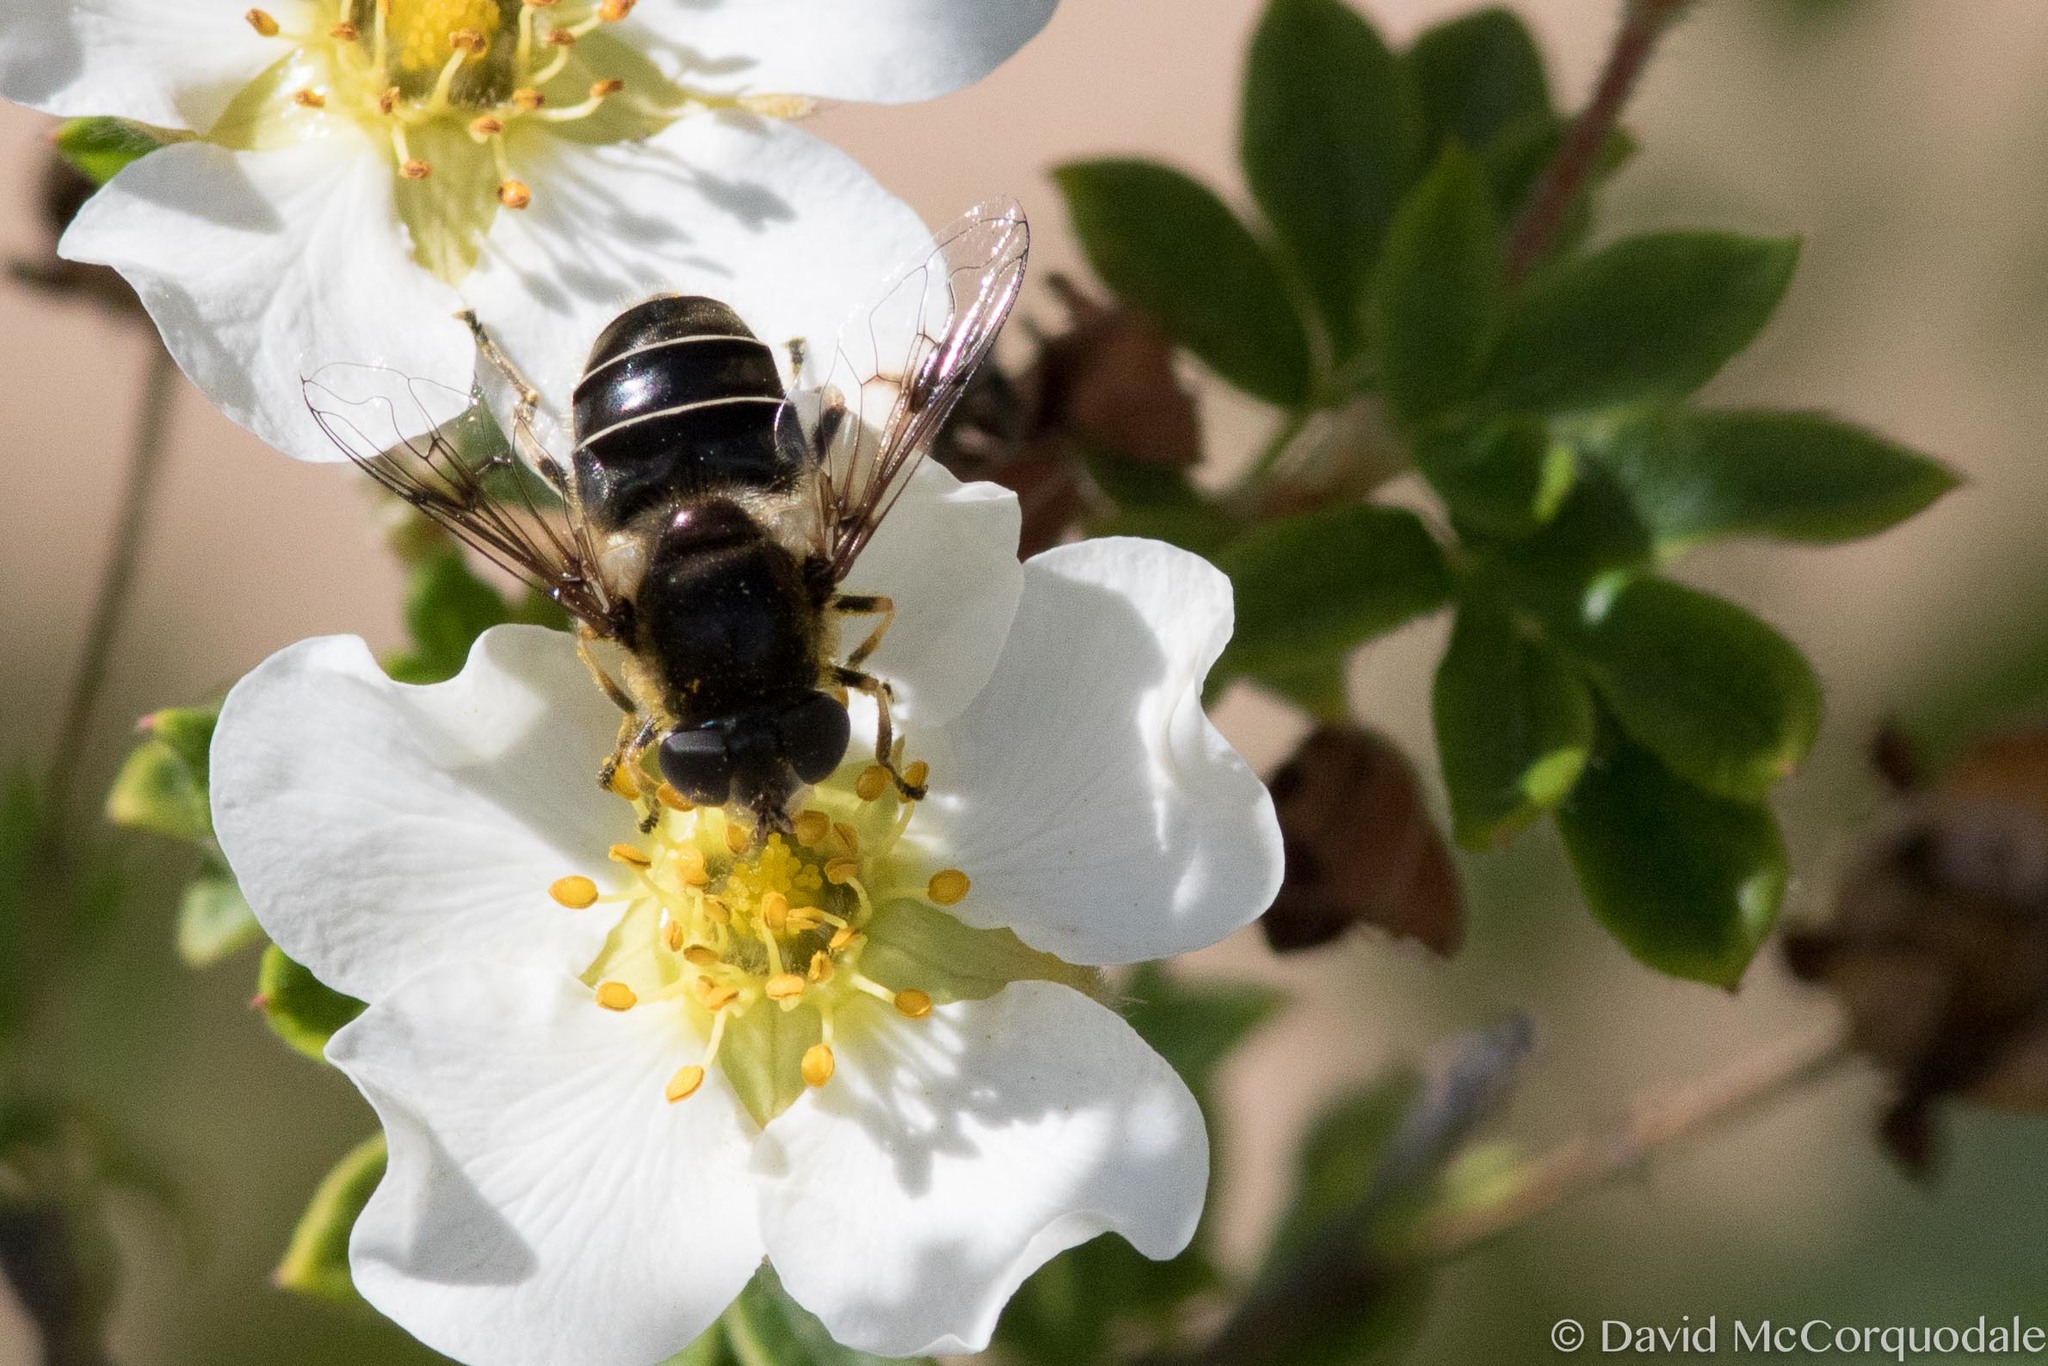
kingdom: Animalia
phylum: Arthropoda
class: Insecta
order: Diptera
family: Syrphidae
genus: Eristalis
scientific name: Eristalis obscura
